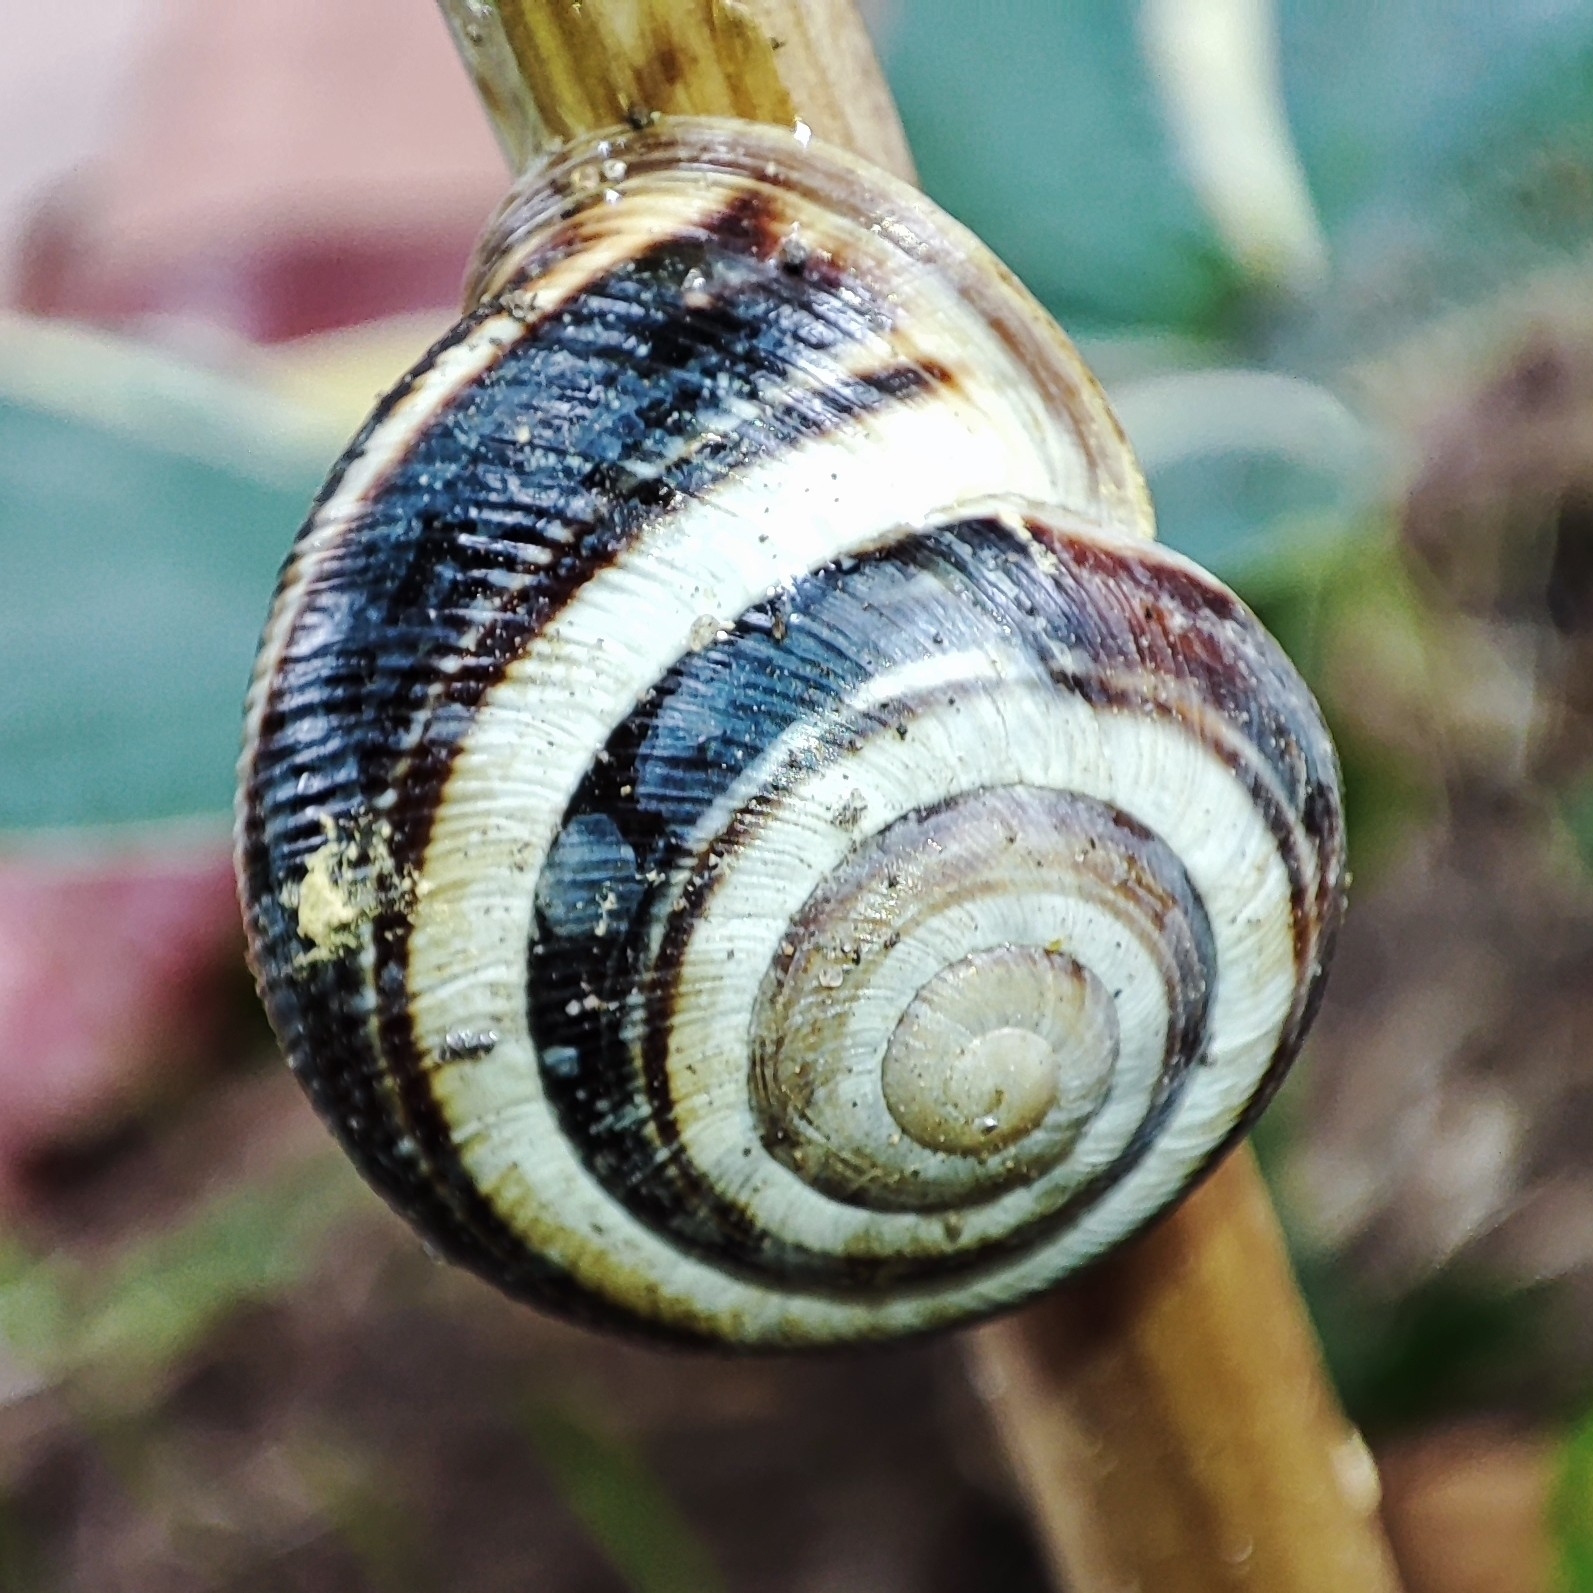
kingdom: Animalia
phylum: Mollusca
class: Gastropoda
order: Stylommatophora
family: Helicidae
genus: Caucasotachea
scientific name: Caucasotachea vindobonensis
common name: European helicid land snail
